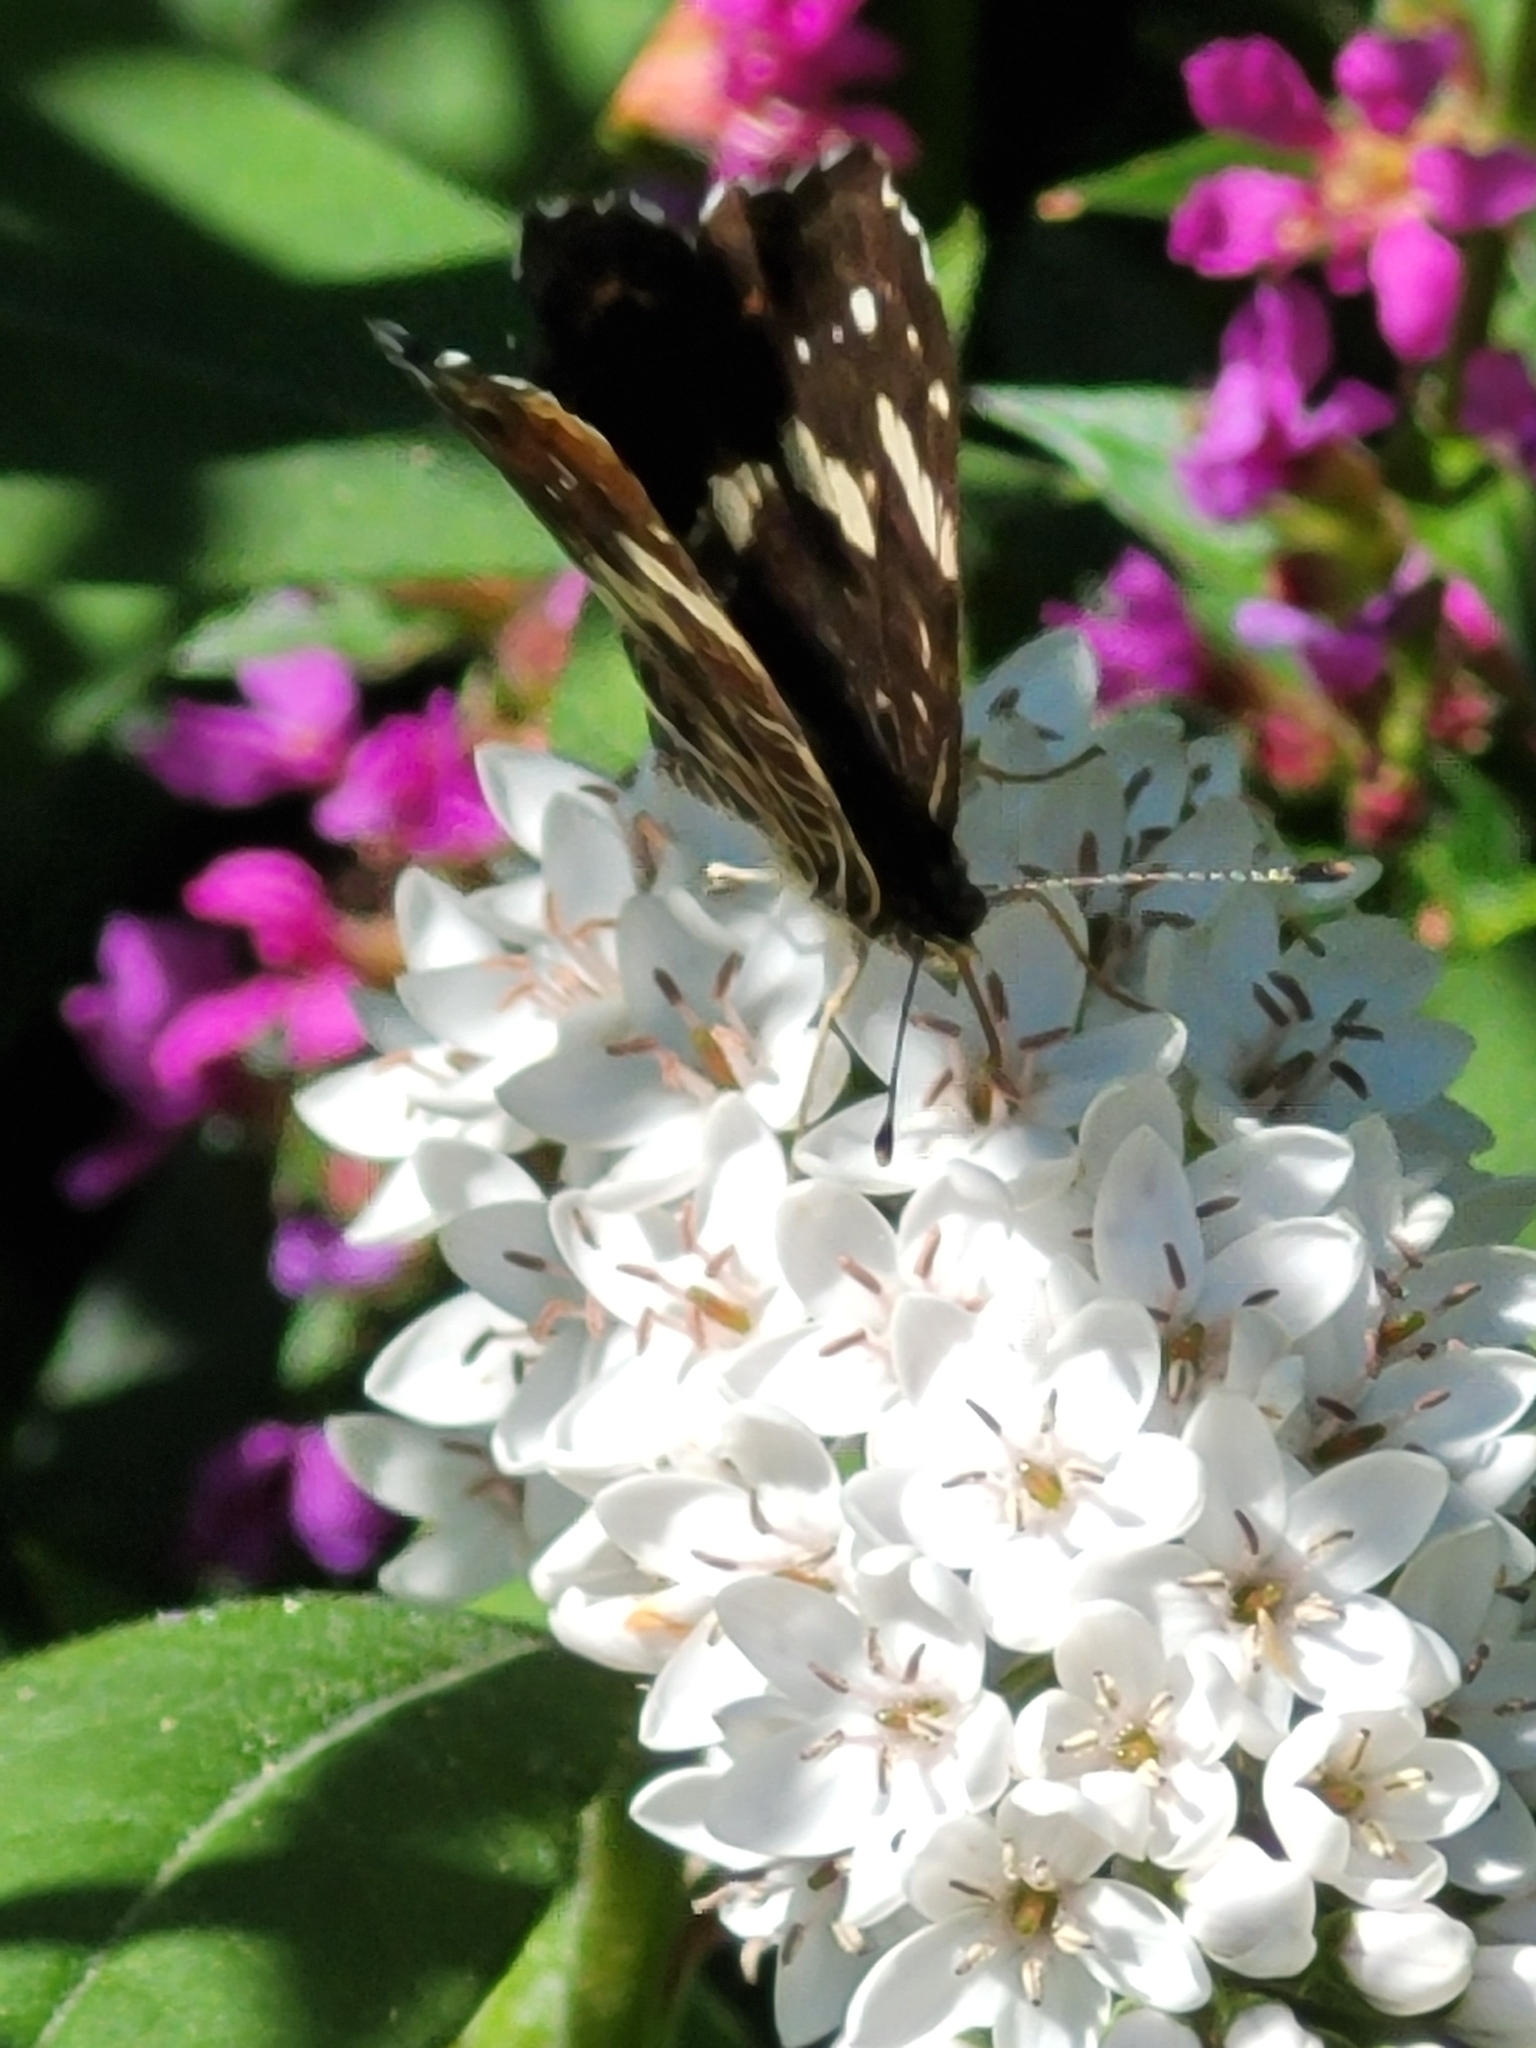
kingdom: Animalia
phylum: Arthropoda
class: Insecta
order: Lepidoptera
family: Nymphalidae
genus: Araschnia
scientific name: Araschnia levana
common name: Map butterfly
